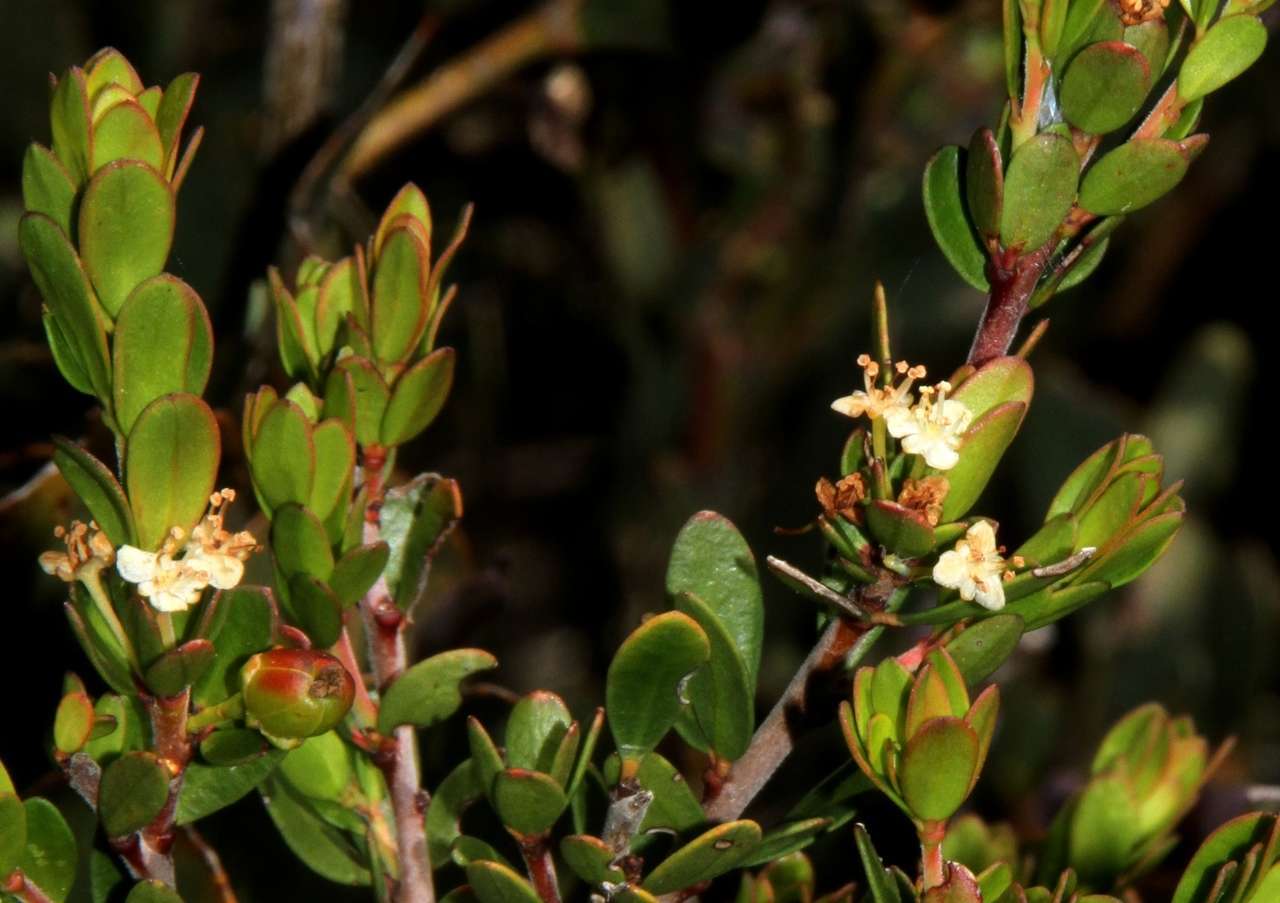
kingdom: Plantae
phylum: Tracheophyta
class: Magnoliopsida
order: Malpighiales
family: Picrodendraceae
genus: Micrantheum
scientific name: Micrantheum hexandrum
